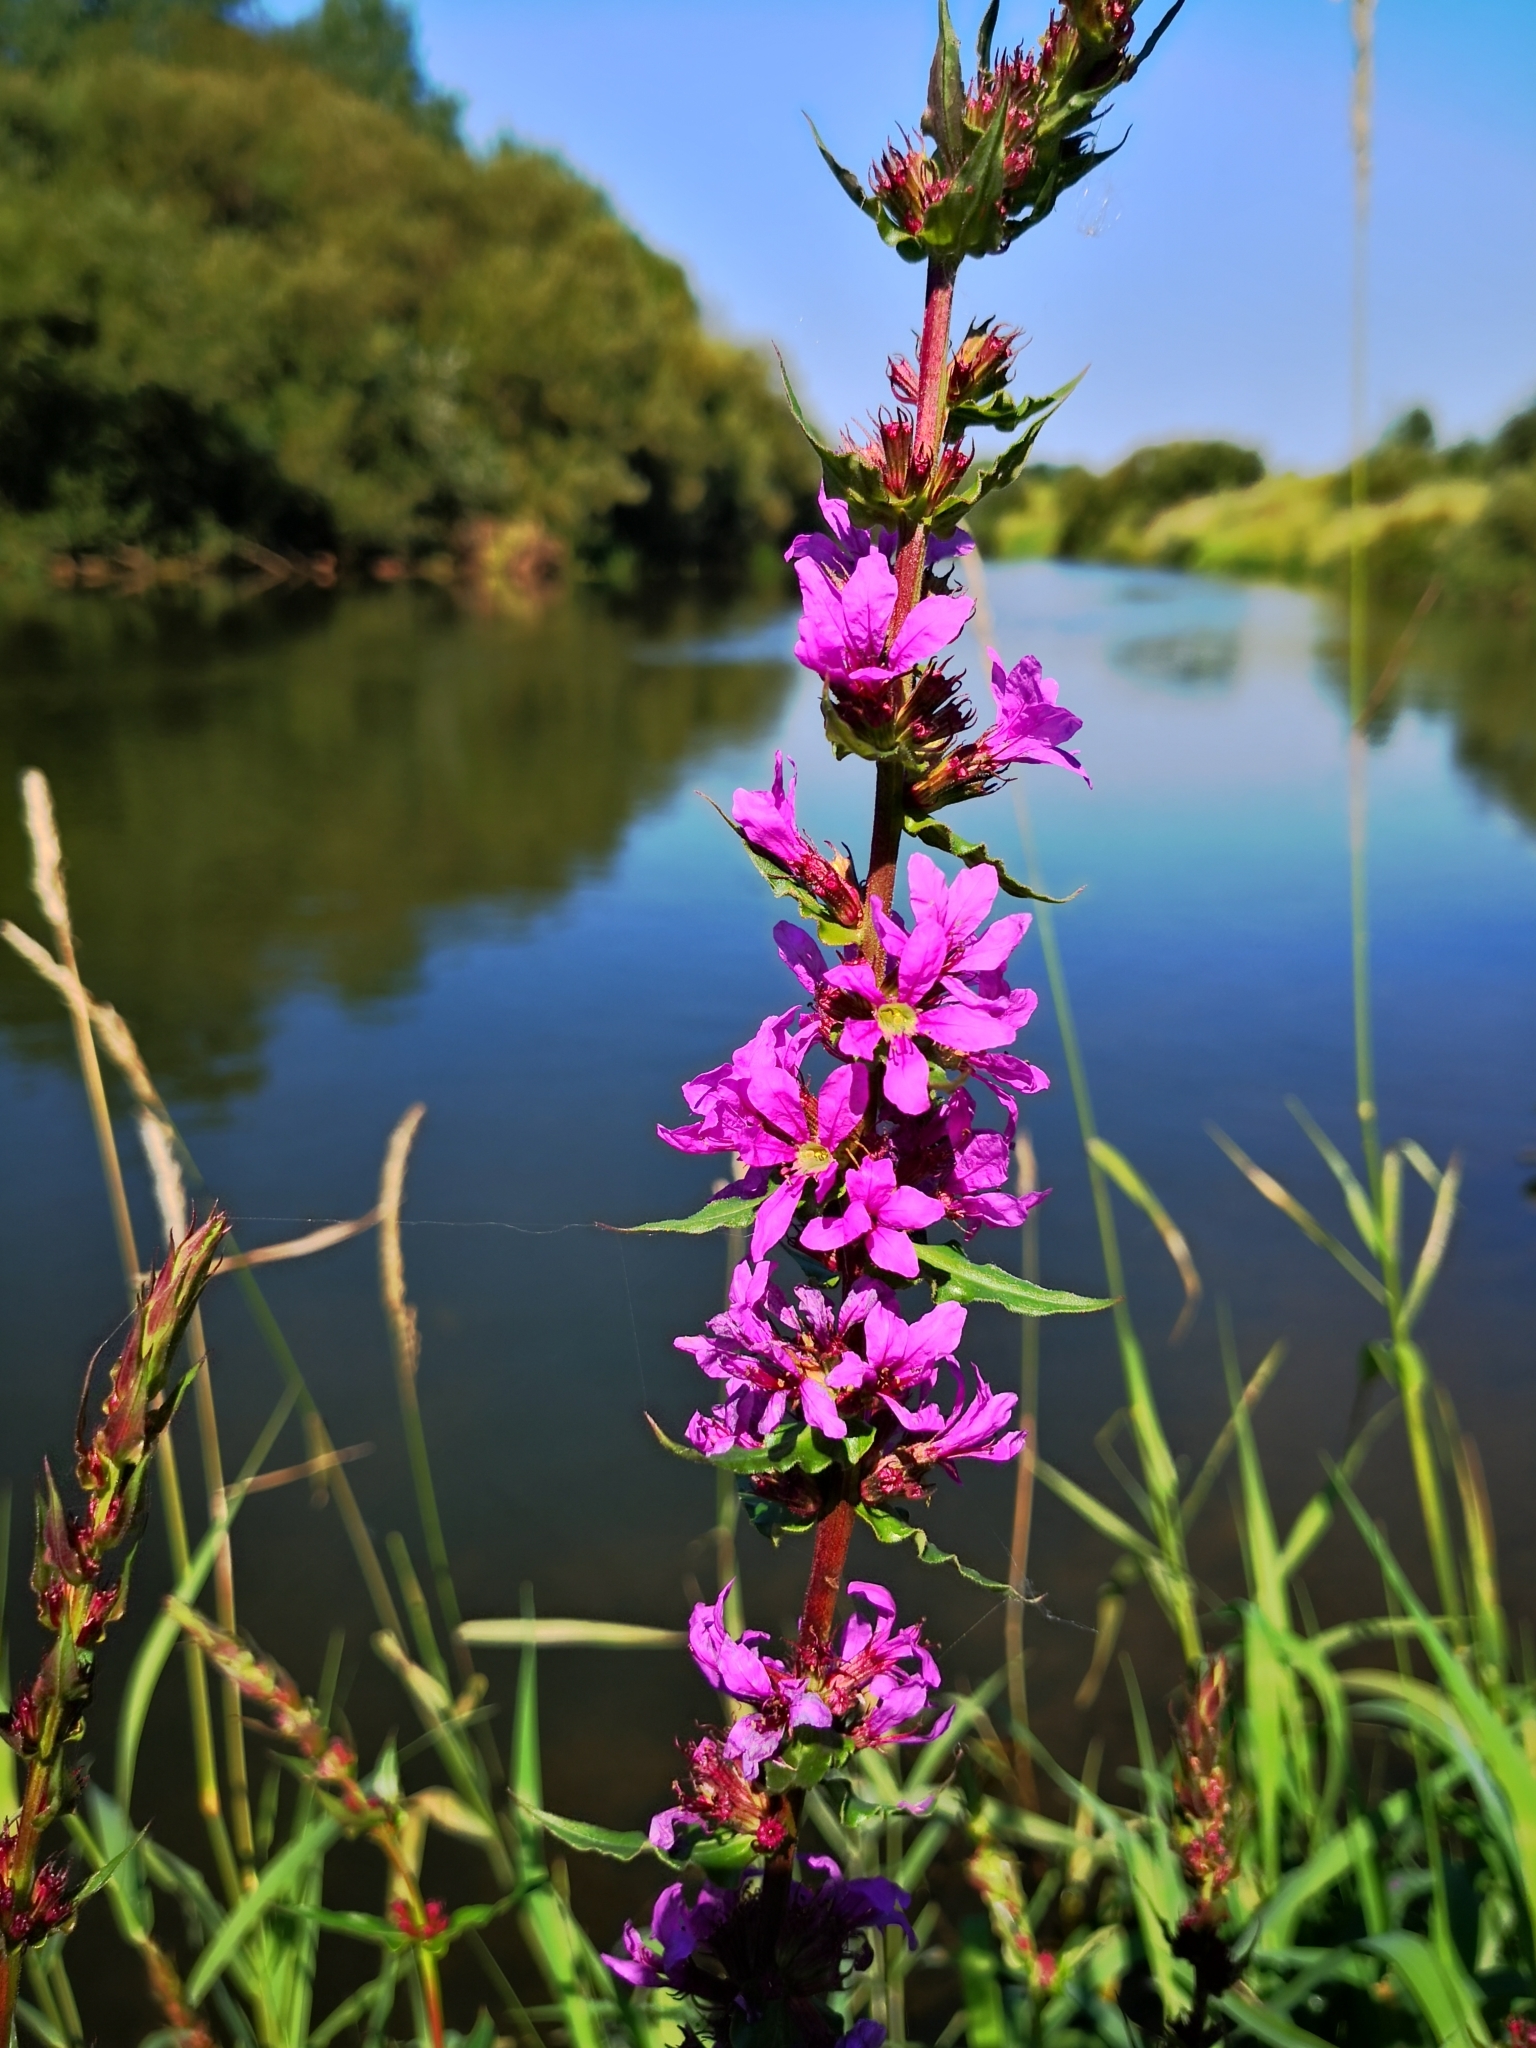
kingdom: Plantae
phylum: Tracheophyta
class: Magnoliopsida
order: Myrtales
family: Lythraceae
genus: Lythrum
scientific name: Lythrum salicaria
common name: Purple loosestrife
